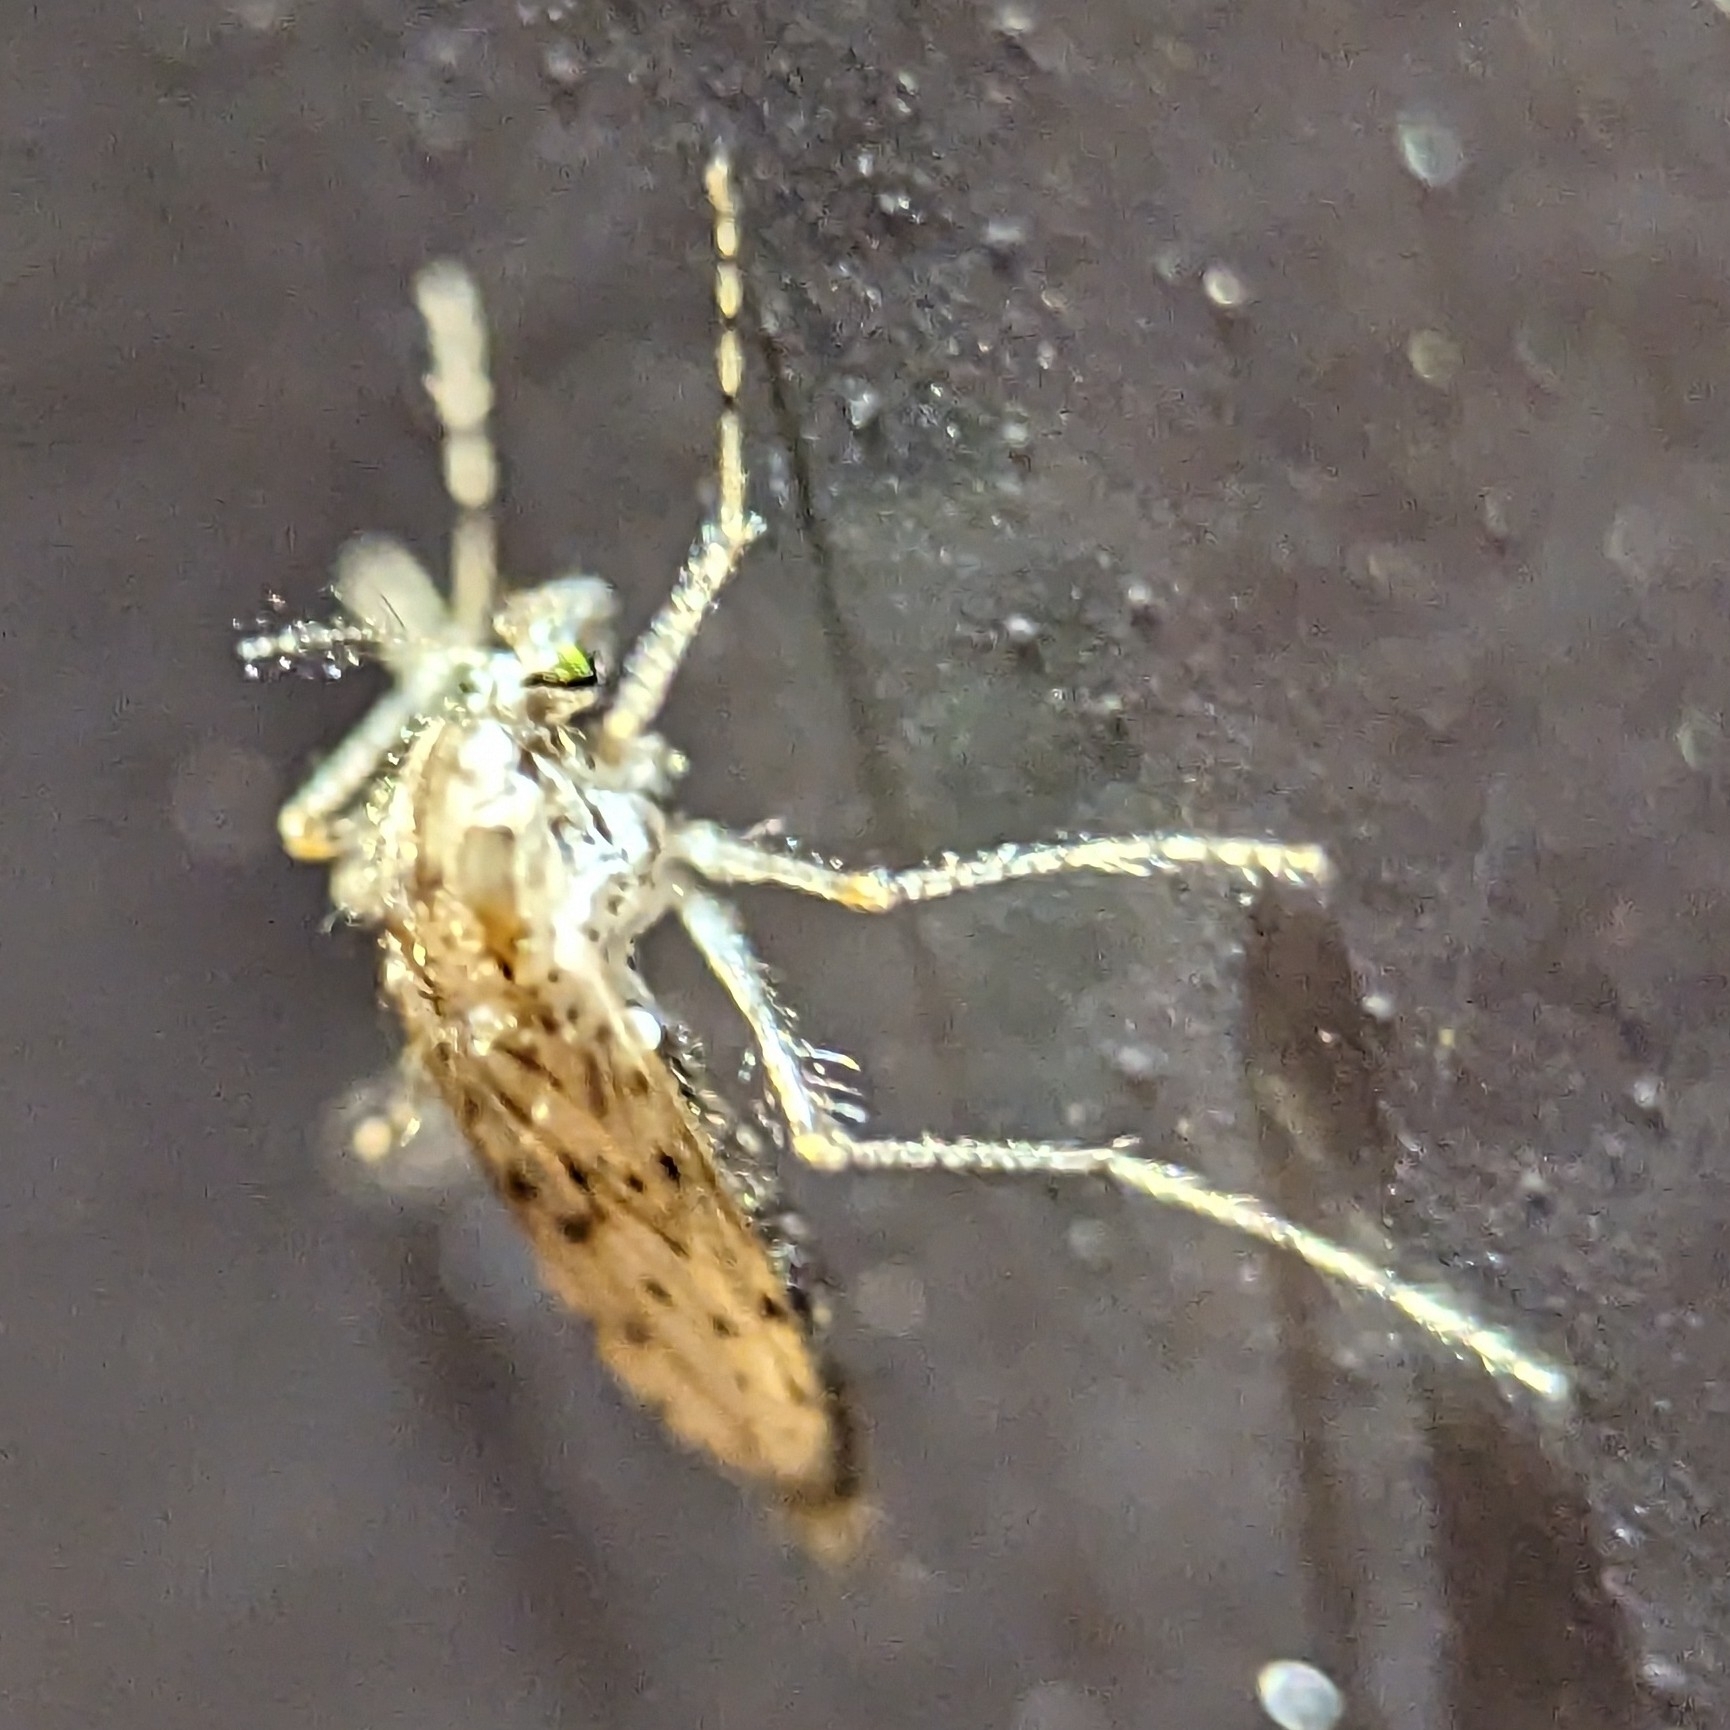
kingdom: Animalia
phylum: Arthropoda
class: Insecta
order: Diptera
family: Chaoboridae
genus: Chaoborus
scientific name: Chaoborus punctipennis
